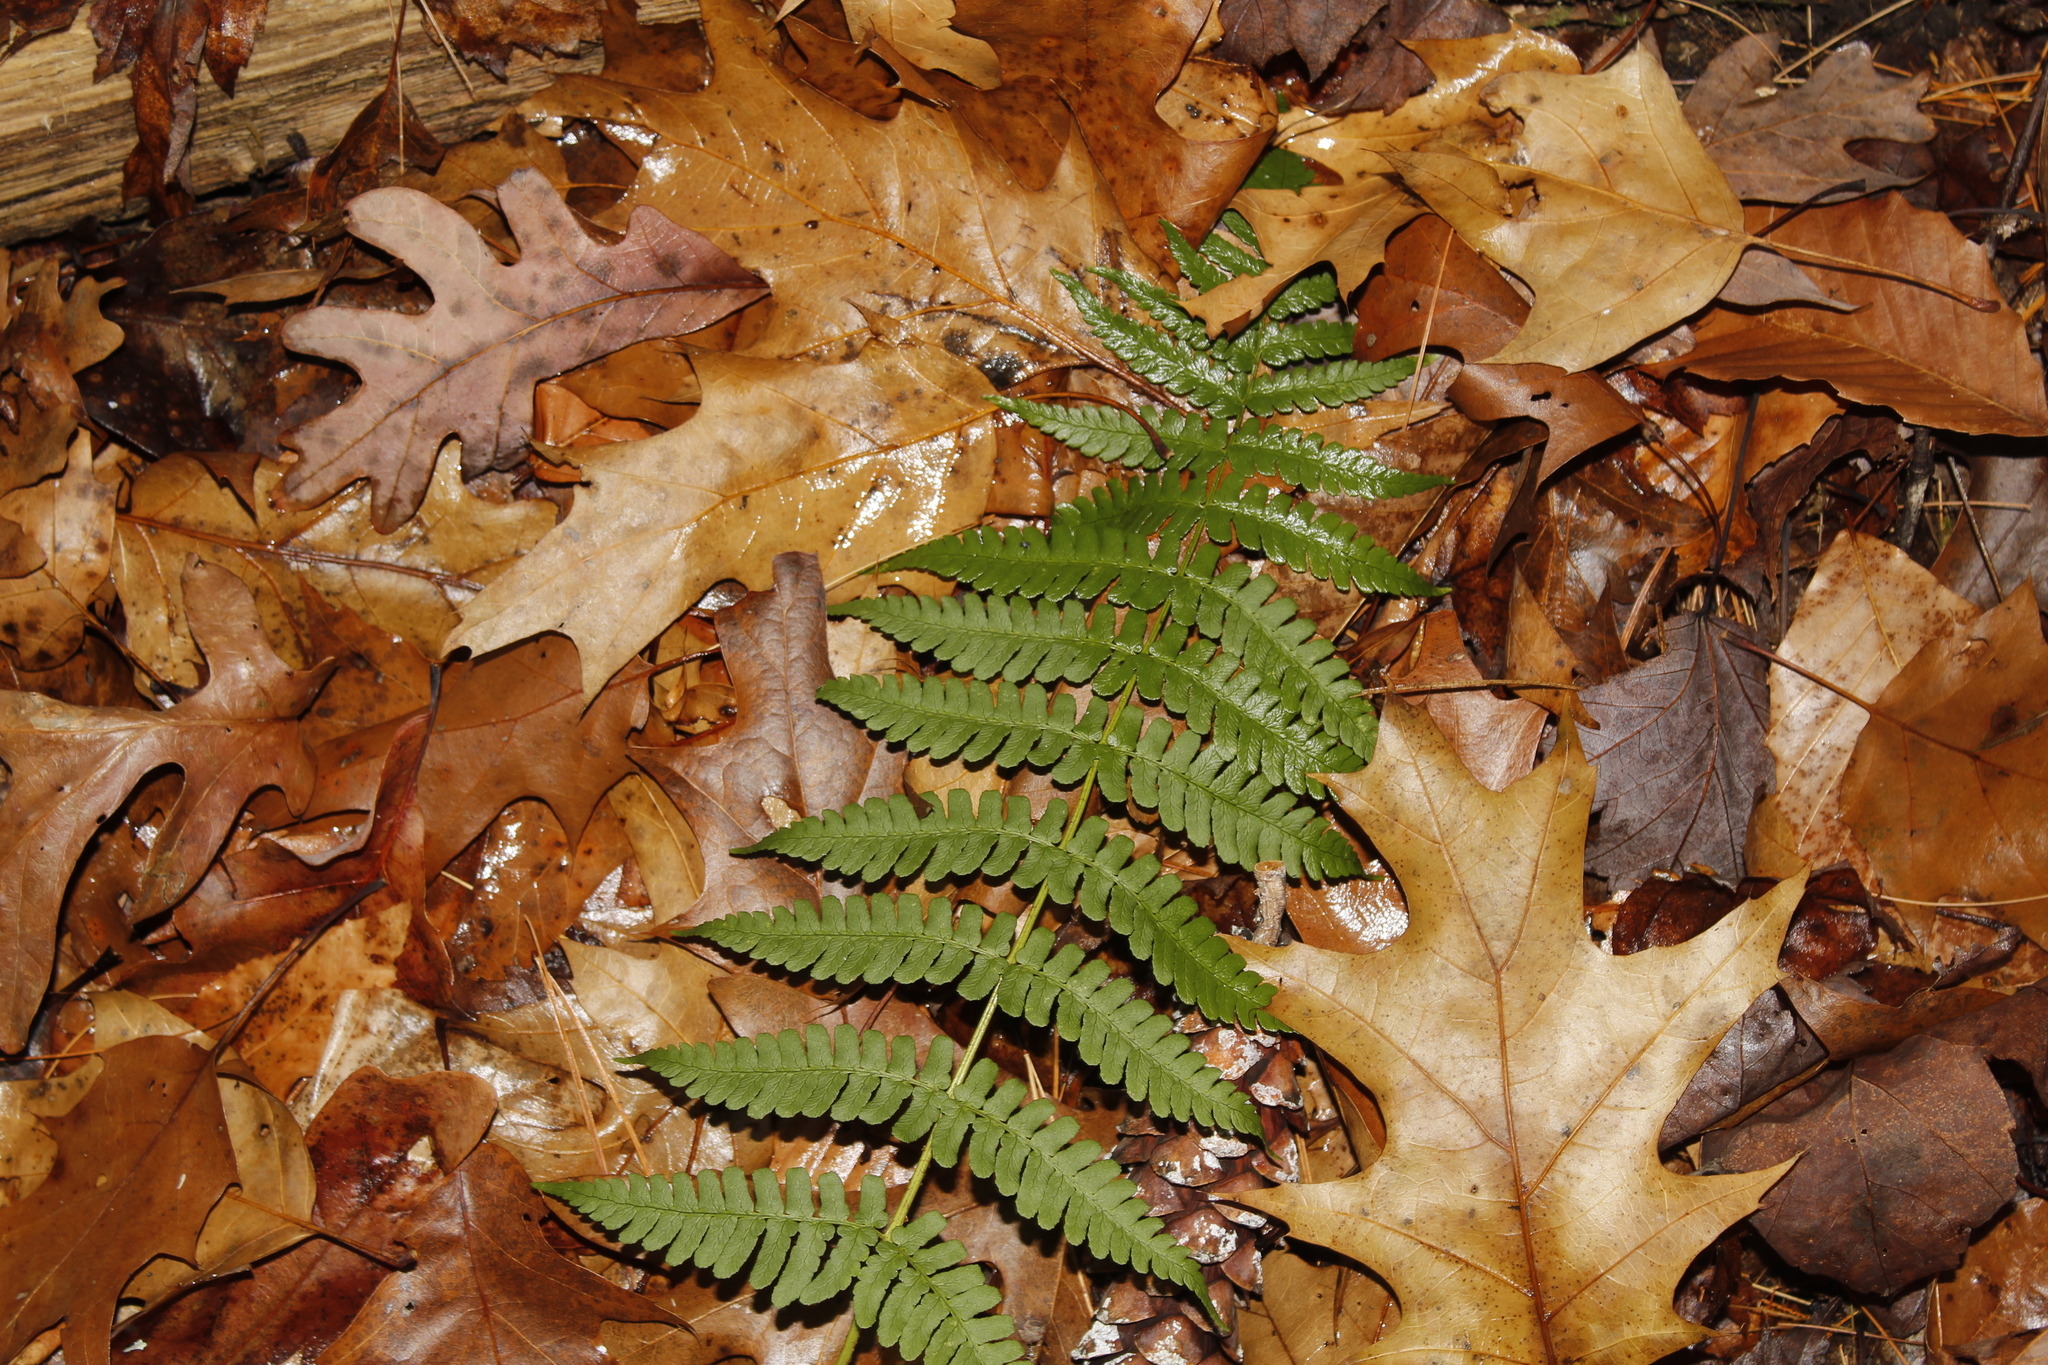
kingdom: Plantae
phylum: Tracheophyta
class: Polypodiopsida
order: Polypodiales
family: Dryopteridaceae
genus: Dryopteris
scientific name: Dryopteris marginalis
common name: Marginal wood fern
